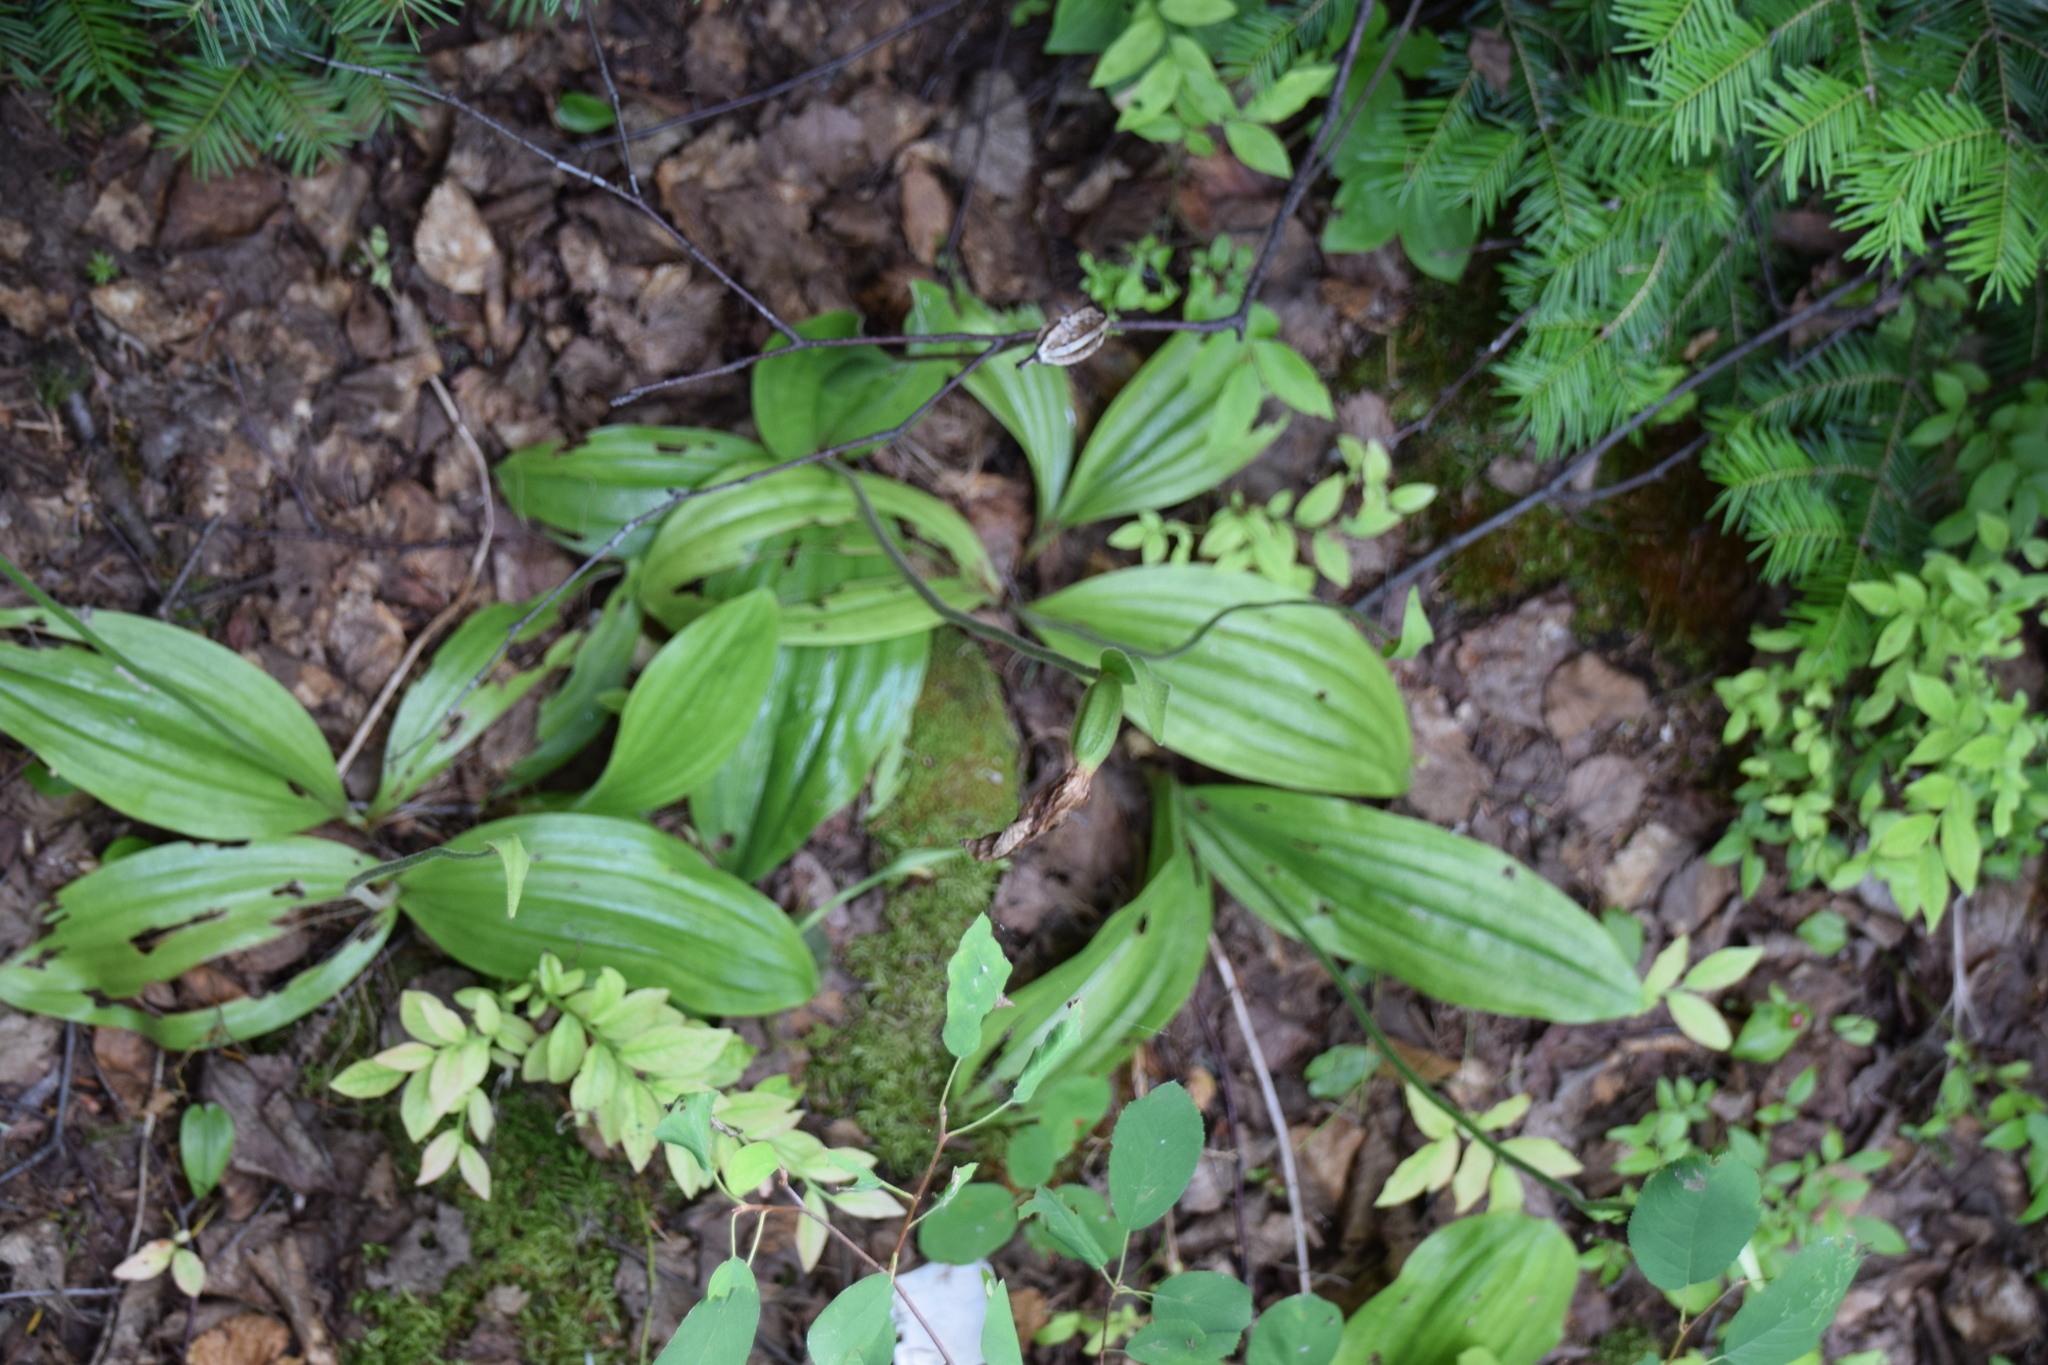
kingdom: Plantae
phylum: Tracheophyta
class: Liliopsida
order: Asparagales
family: Orchidaceae
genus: Cypripedium
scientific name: Cypripedium acaule
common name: Pink lady's-slipper
